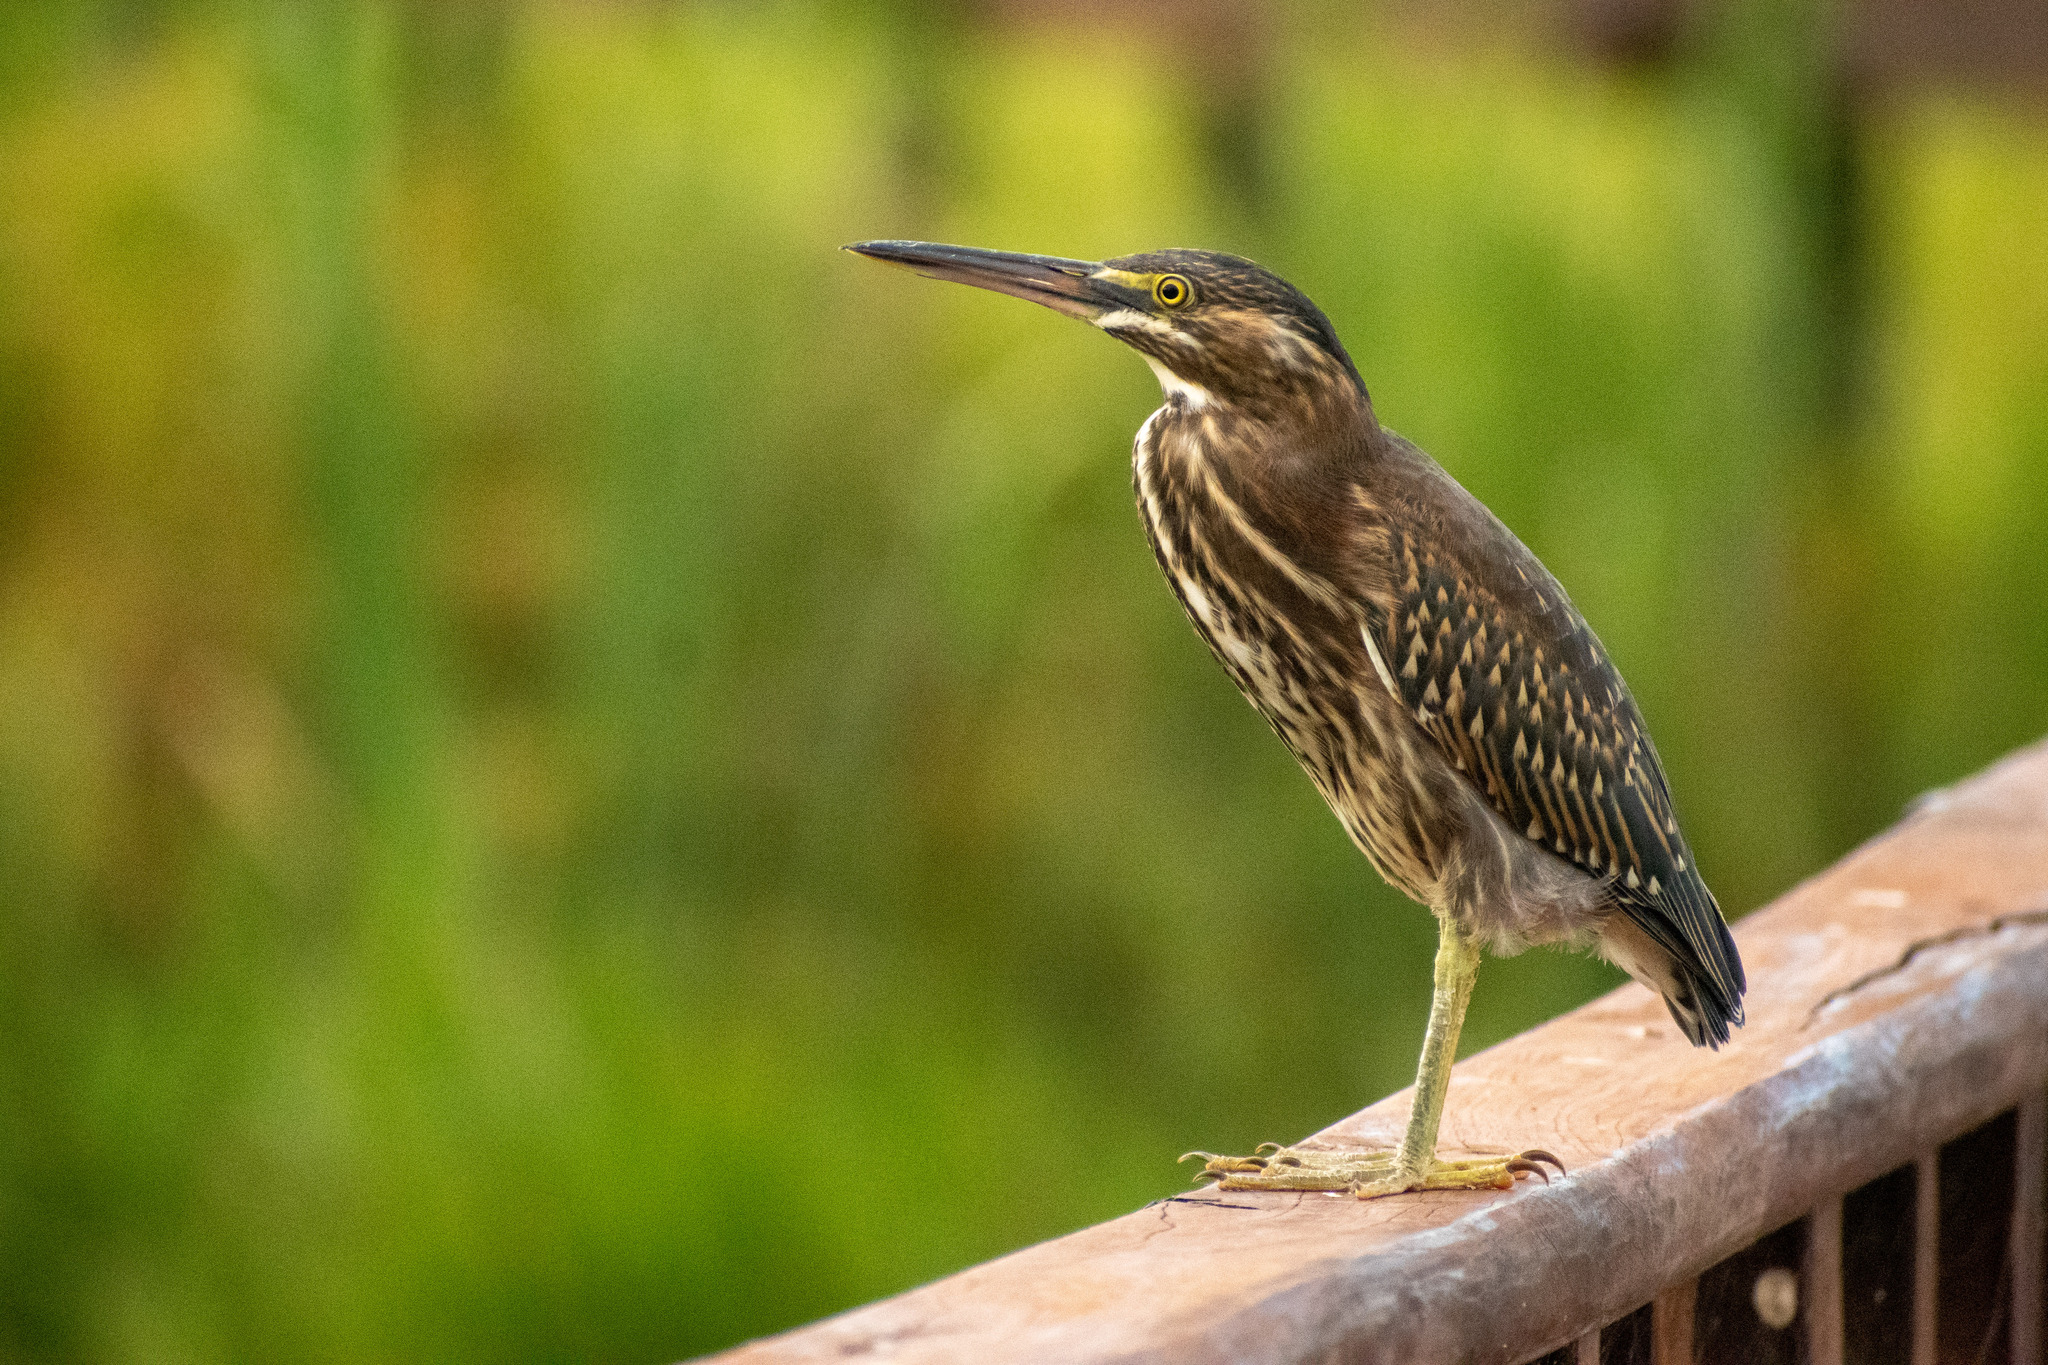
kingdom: Animalia
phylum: Chordata
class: Aves
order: Pelecaniformes
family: Ardeidae
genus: Butorides
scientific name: Butorides striata
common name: Striated heron
